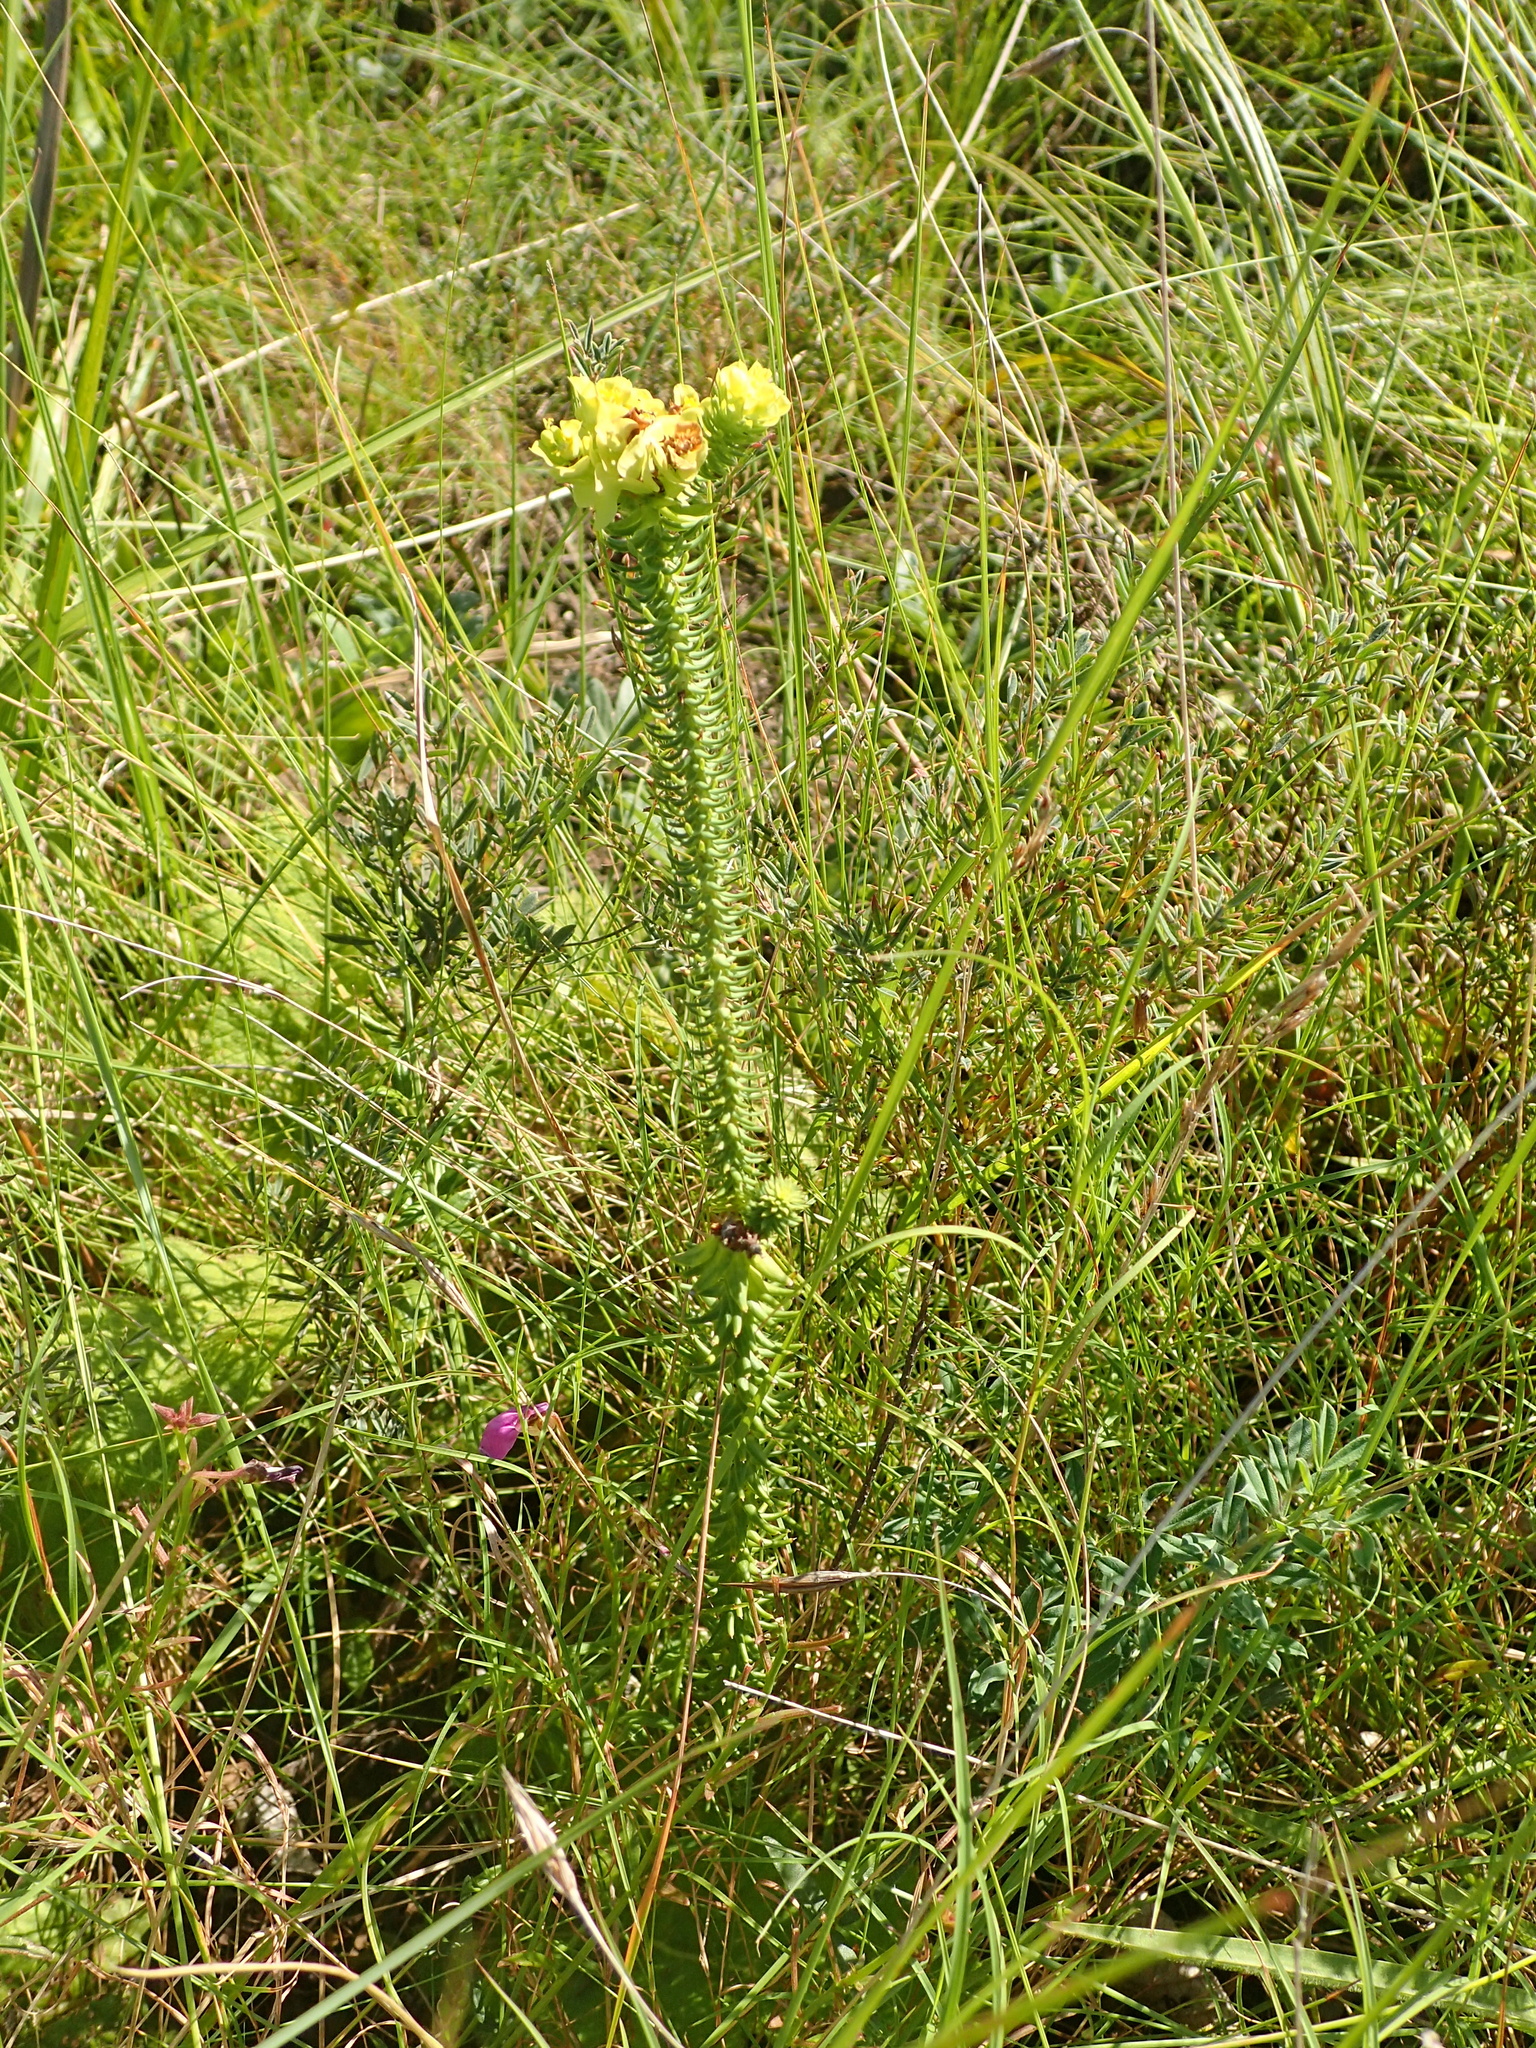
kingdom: Plantae
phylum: Tracheophyta
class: Magnoliopsida
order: Malpighiales
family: Euphorbiaceae
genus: Euphorbia
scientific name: Euphorbia natalensis
